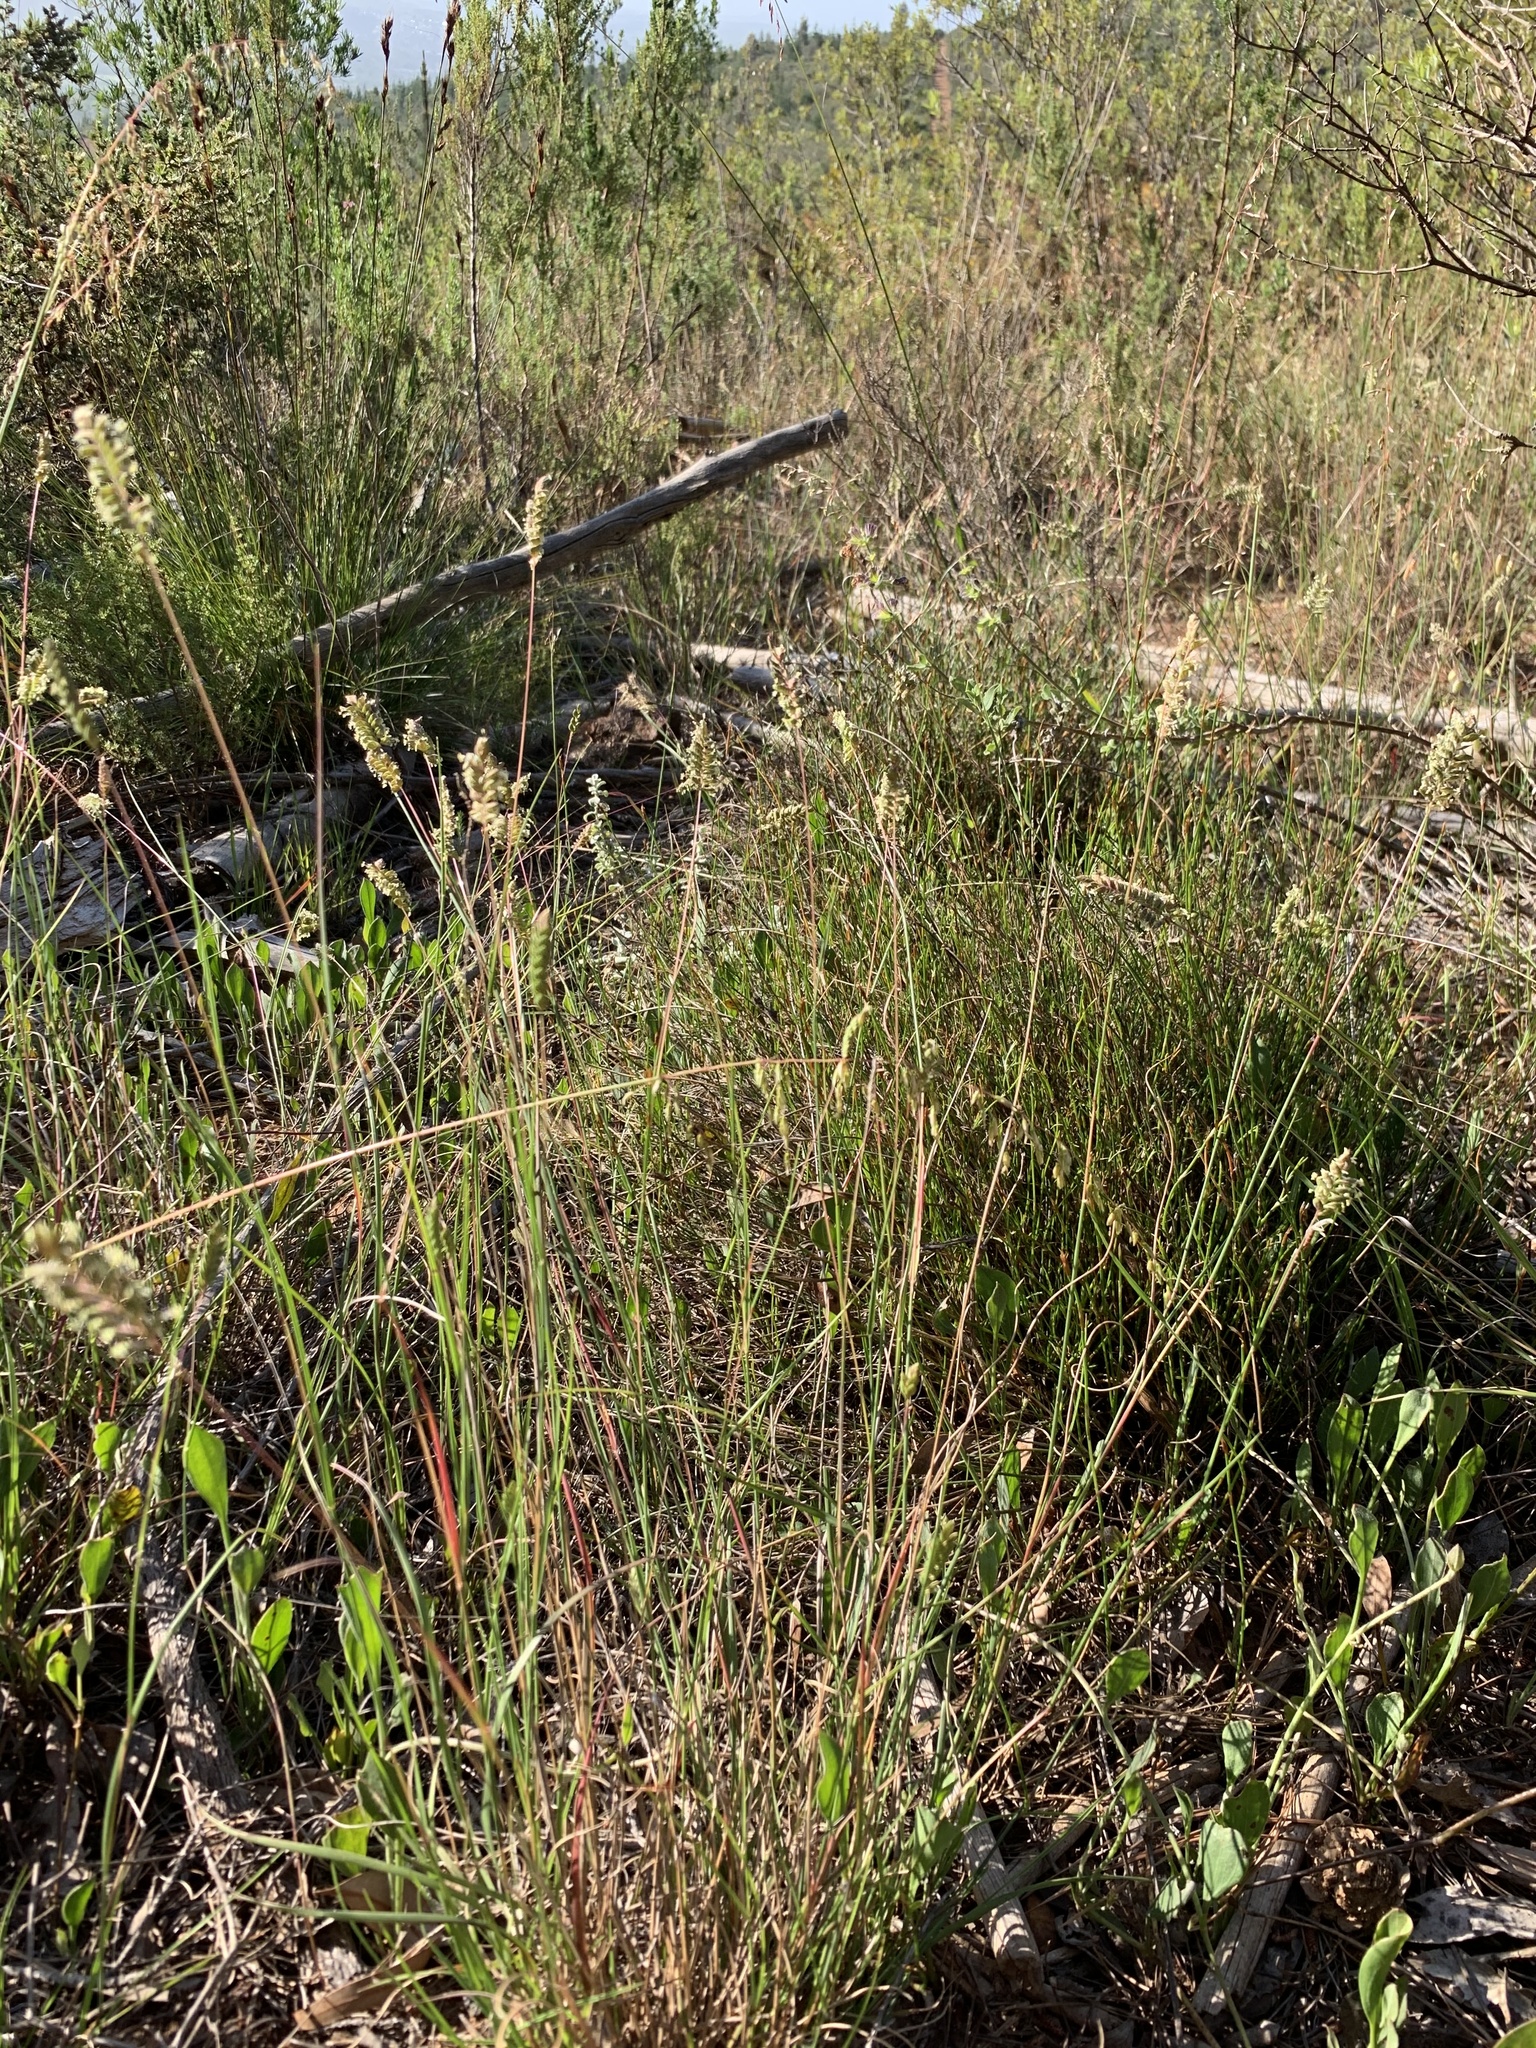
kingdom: Plantae
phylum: Tracheophyta
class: Liliopsida
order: Poales
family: Poaceae
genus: Tribolium
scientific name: Tribolium uniolae
